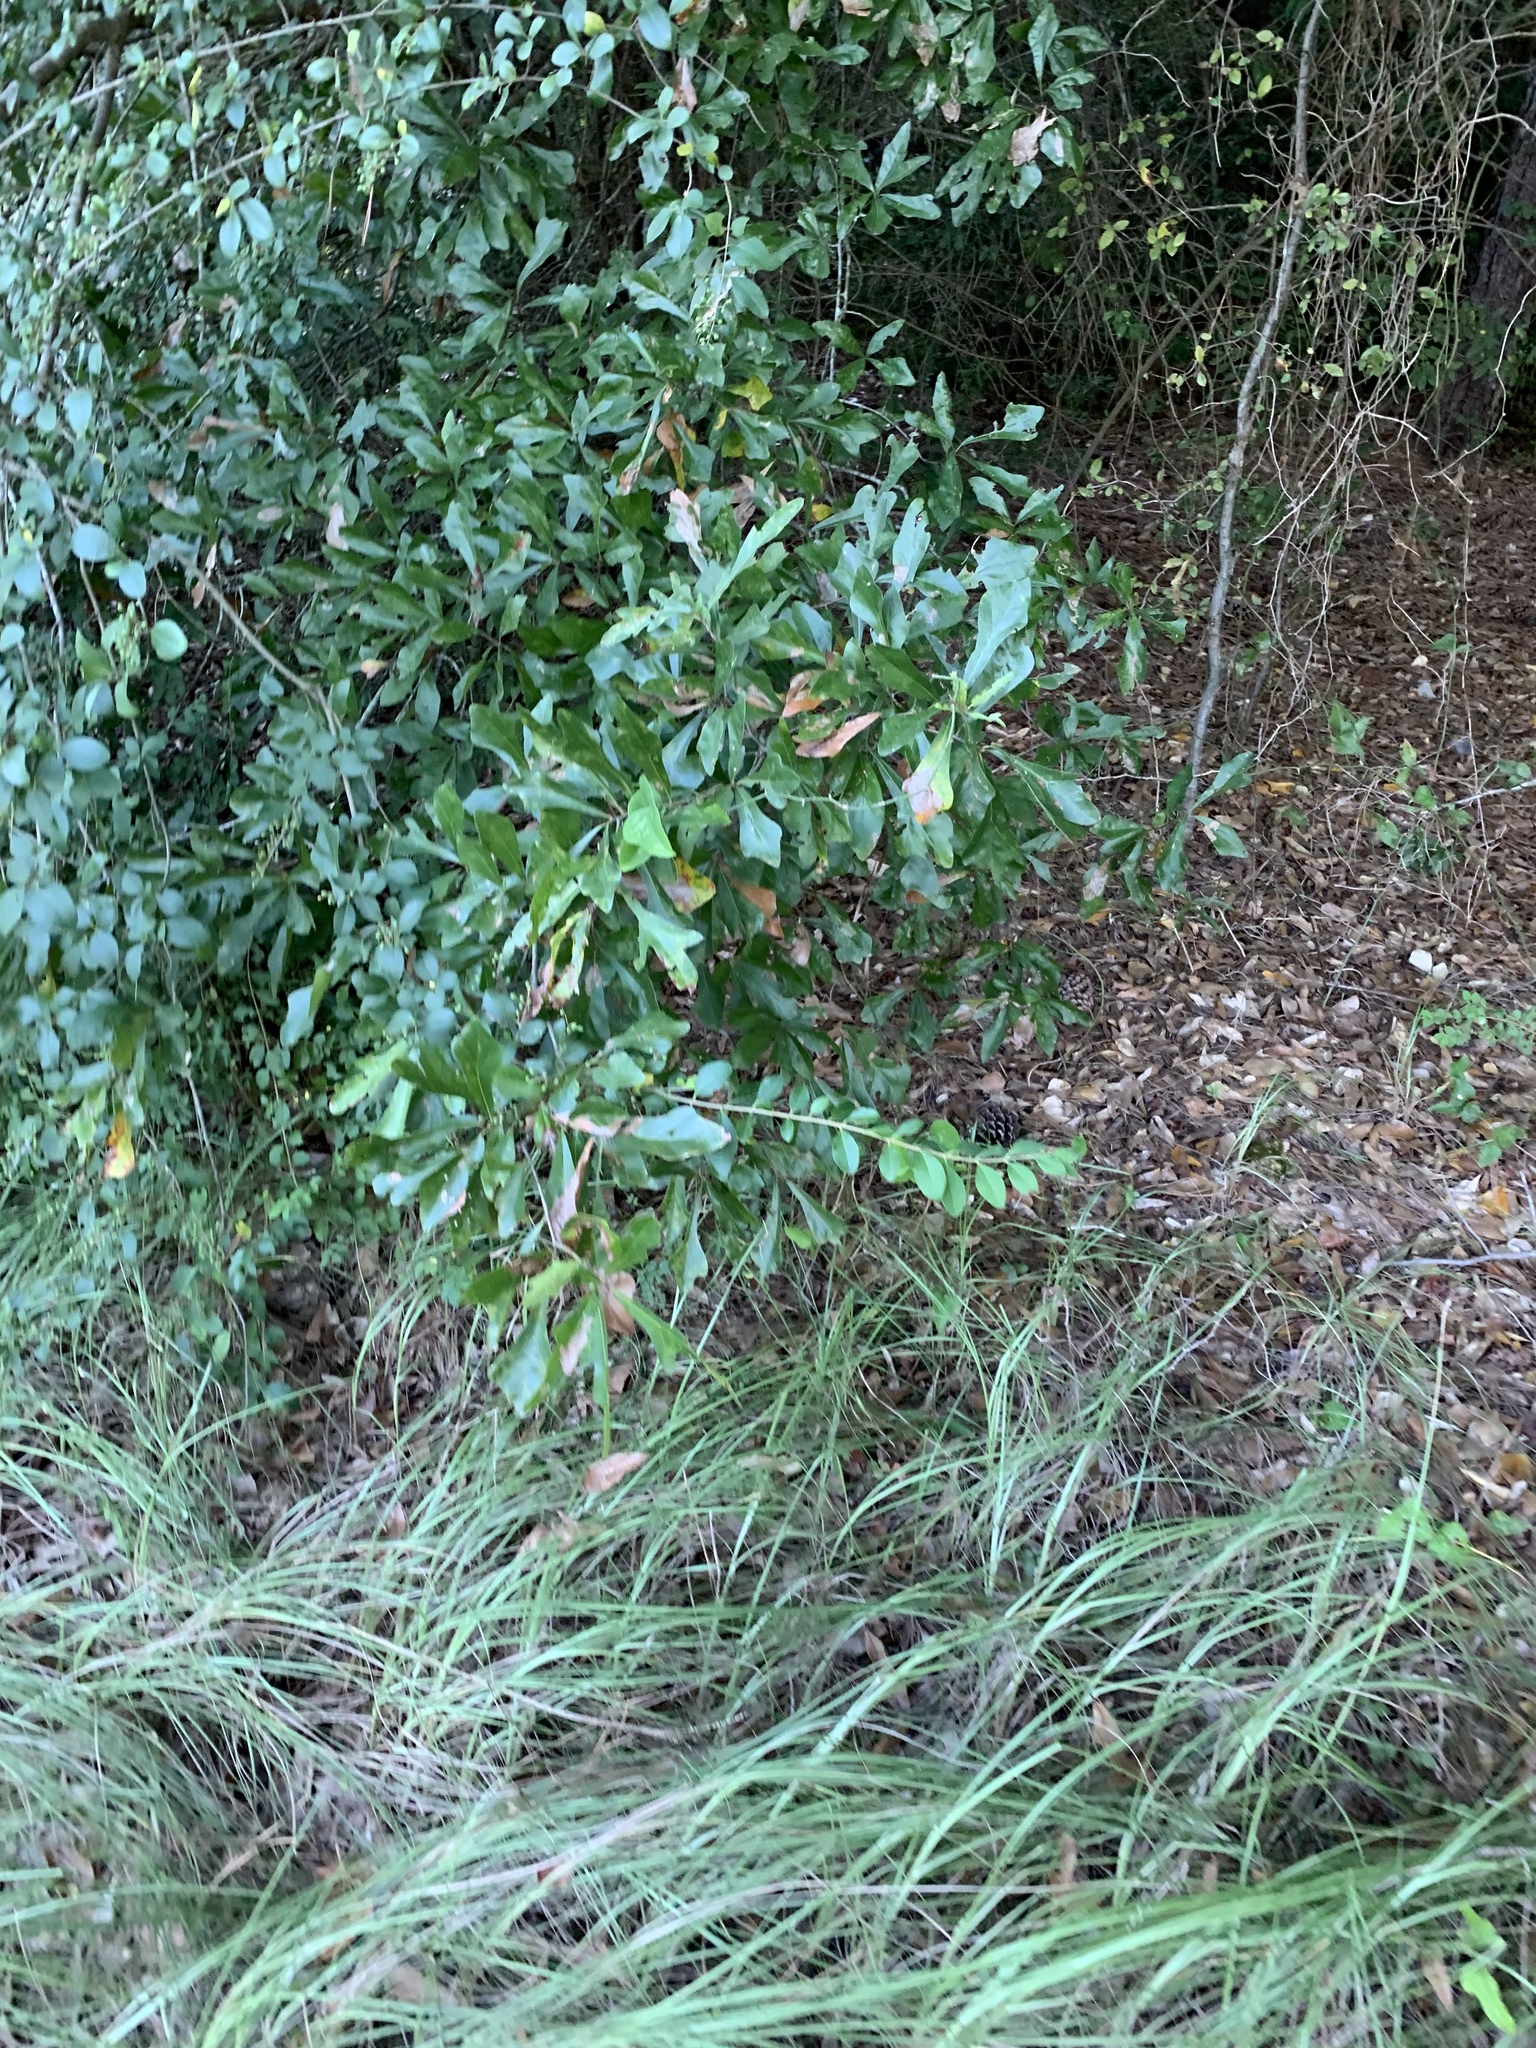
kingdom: Plantae
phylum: Tracheophyta
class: Magnoliopsida
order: Fagales
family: Fagaceae
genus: Quercus
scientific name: Quercus nigra
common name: Water oak
